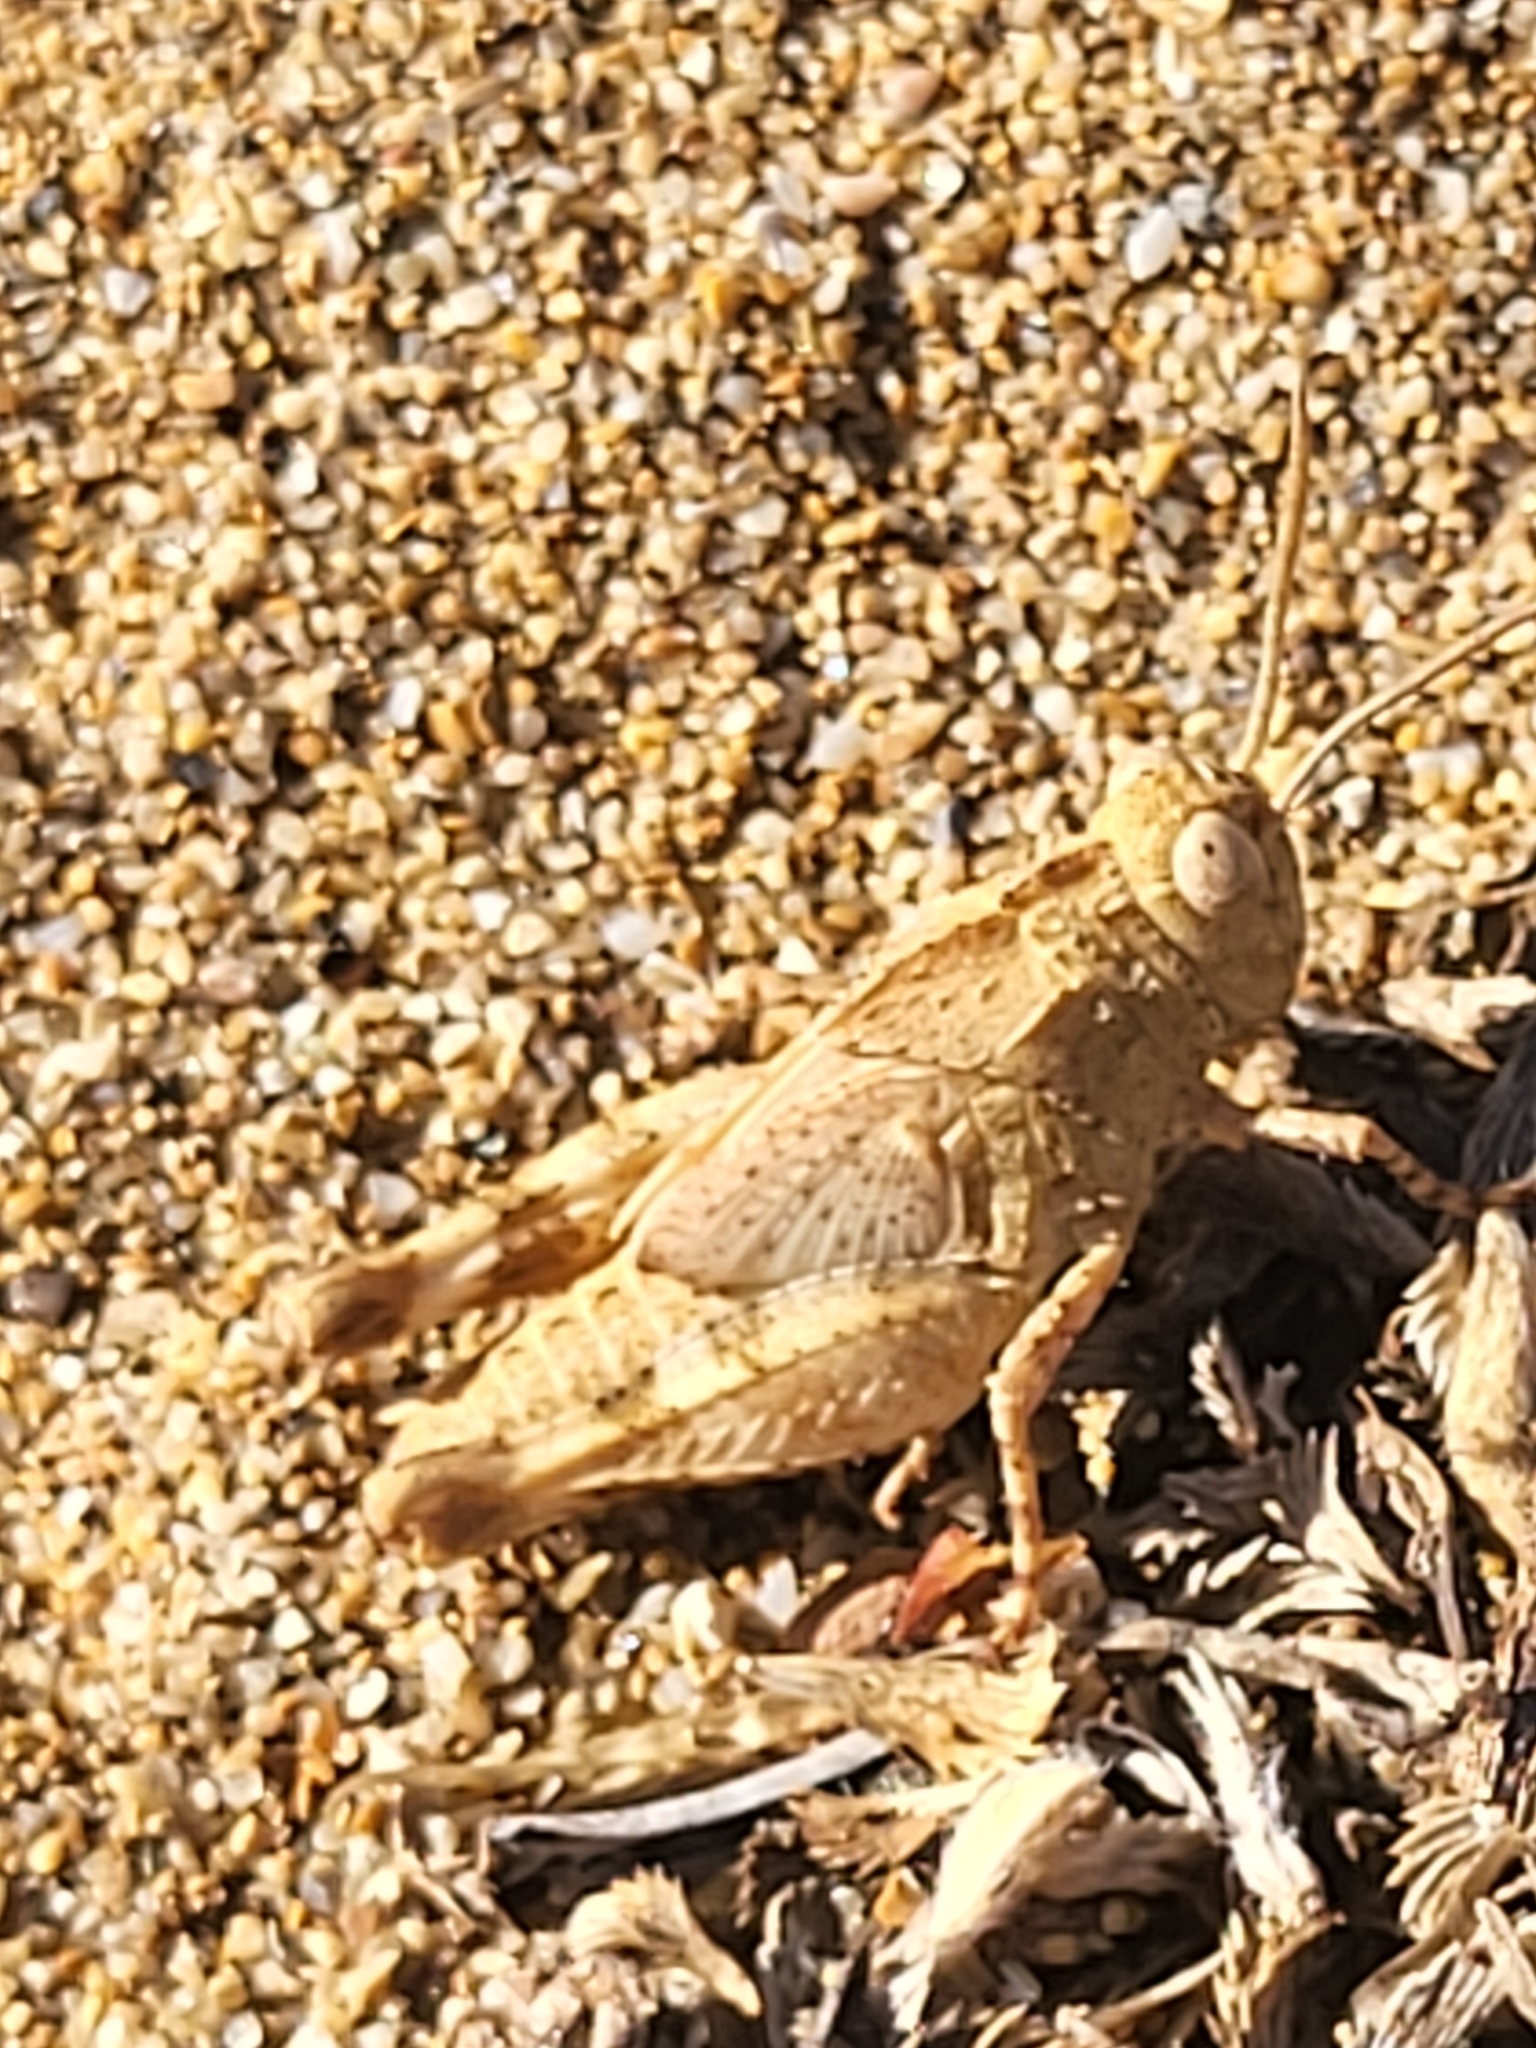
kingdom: Animalia
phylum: Arthropoda
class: Insecta
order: Orthoptera
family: Acrididae
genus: Oedipoda
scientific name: Oedipoda
